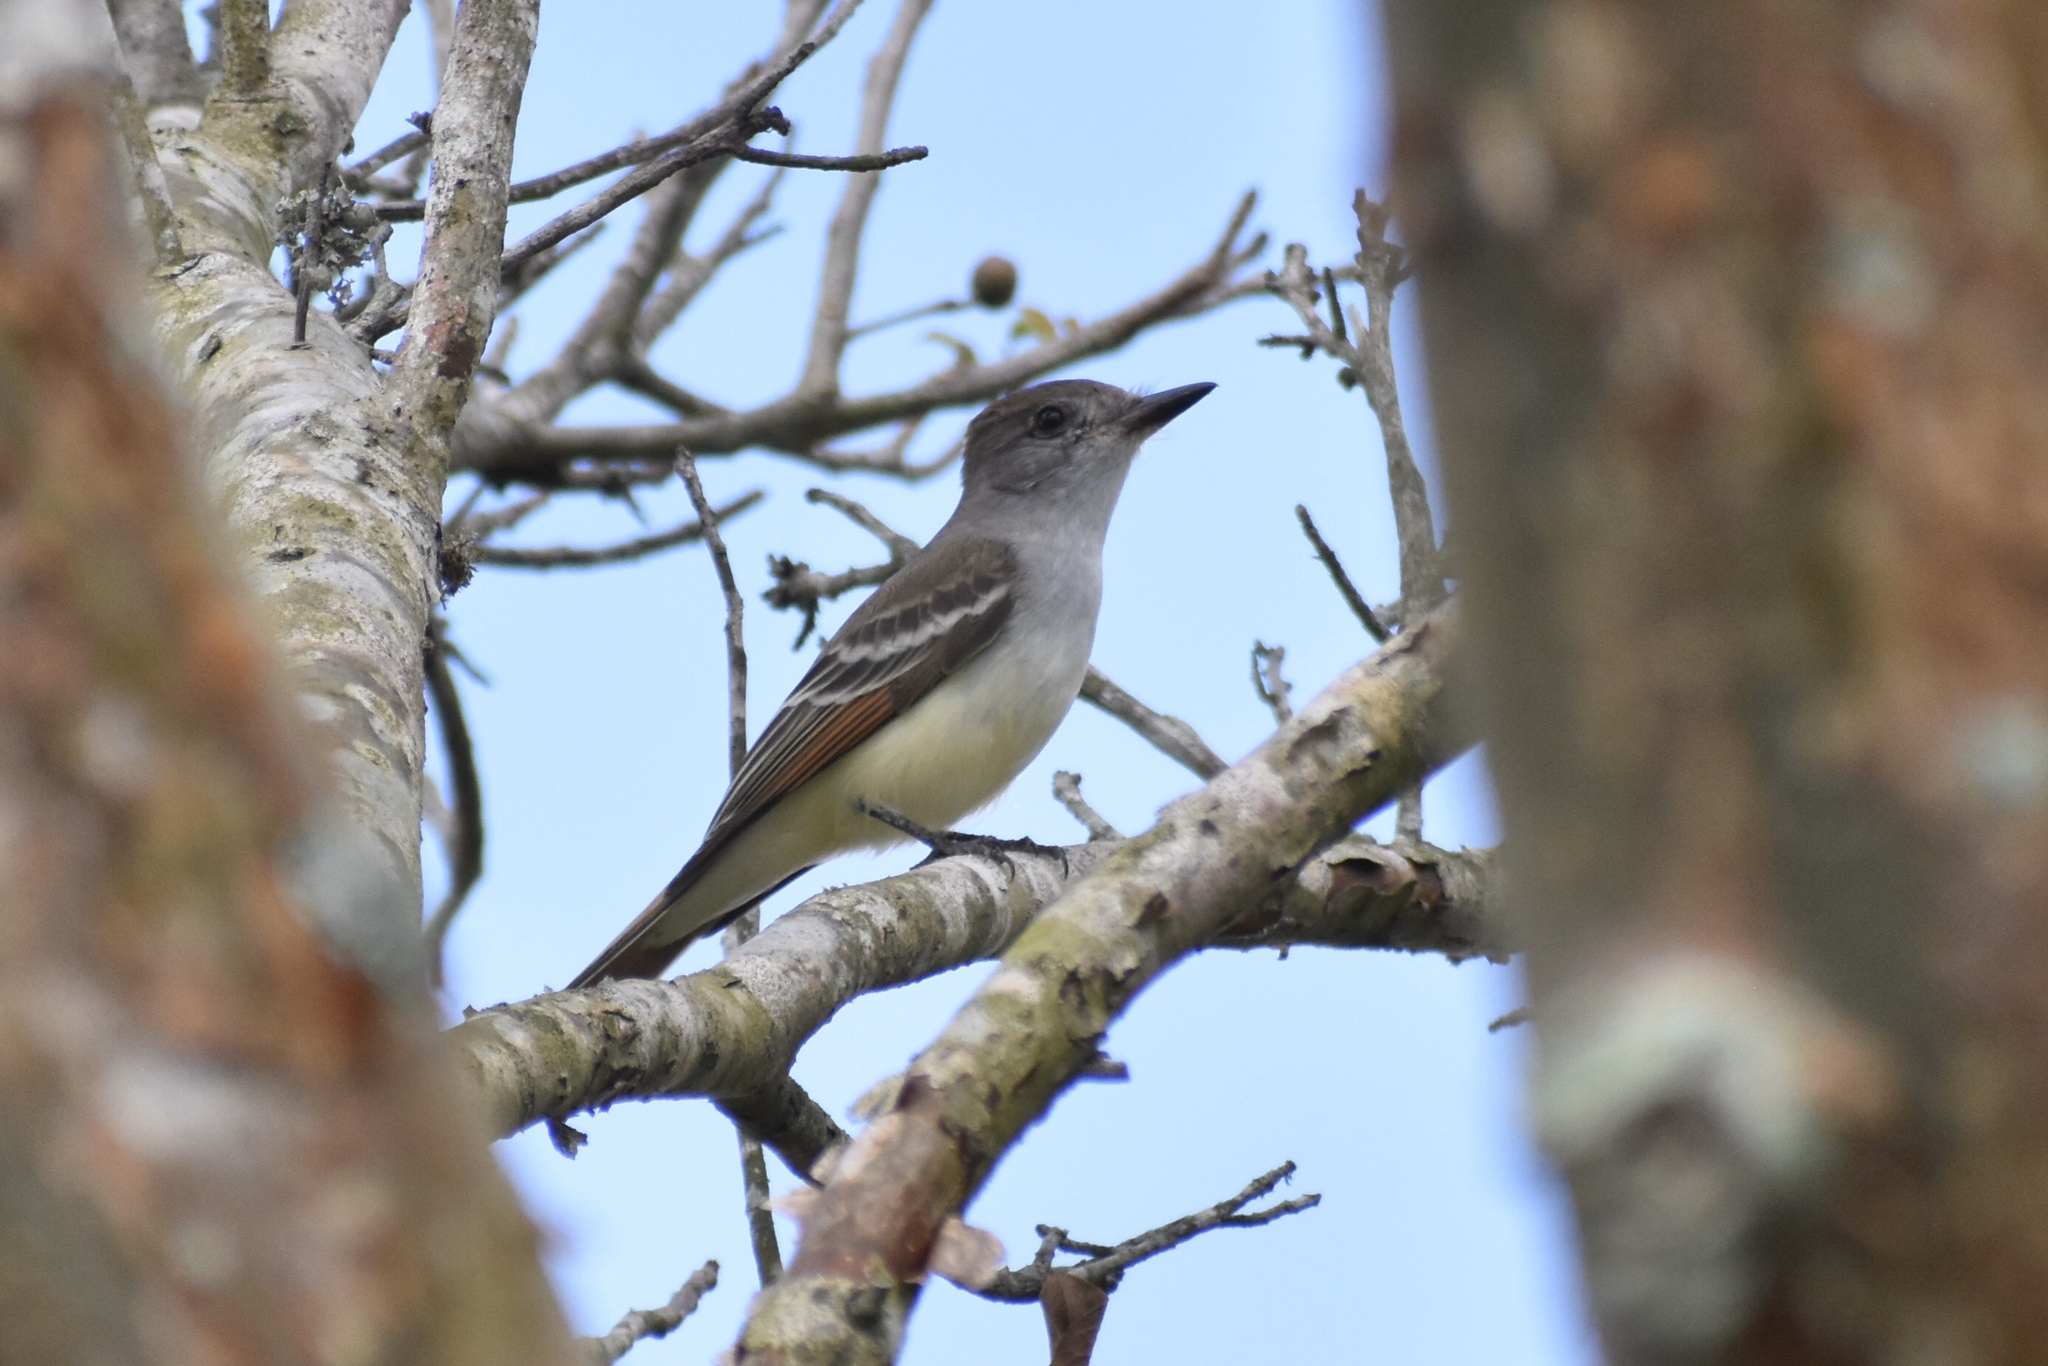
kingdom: Animalia
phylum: Chordata
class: Aves
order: Passeriformes
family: Tyrannidae
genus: Myiarchus
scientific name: Myiarchus cinerascens
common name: Ash-throated flycatcher
